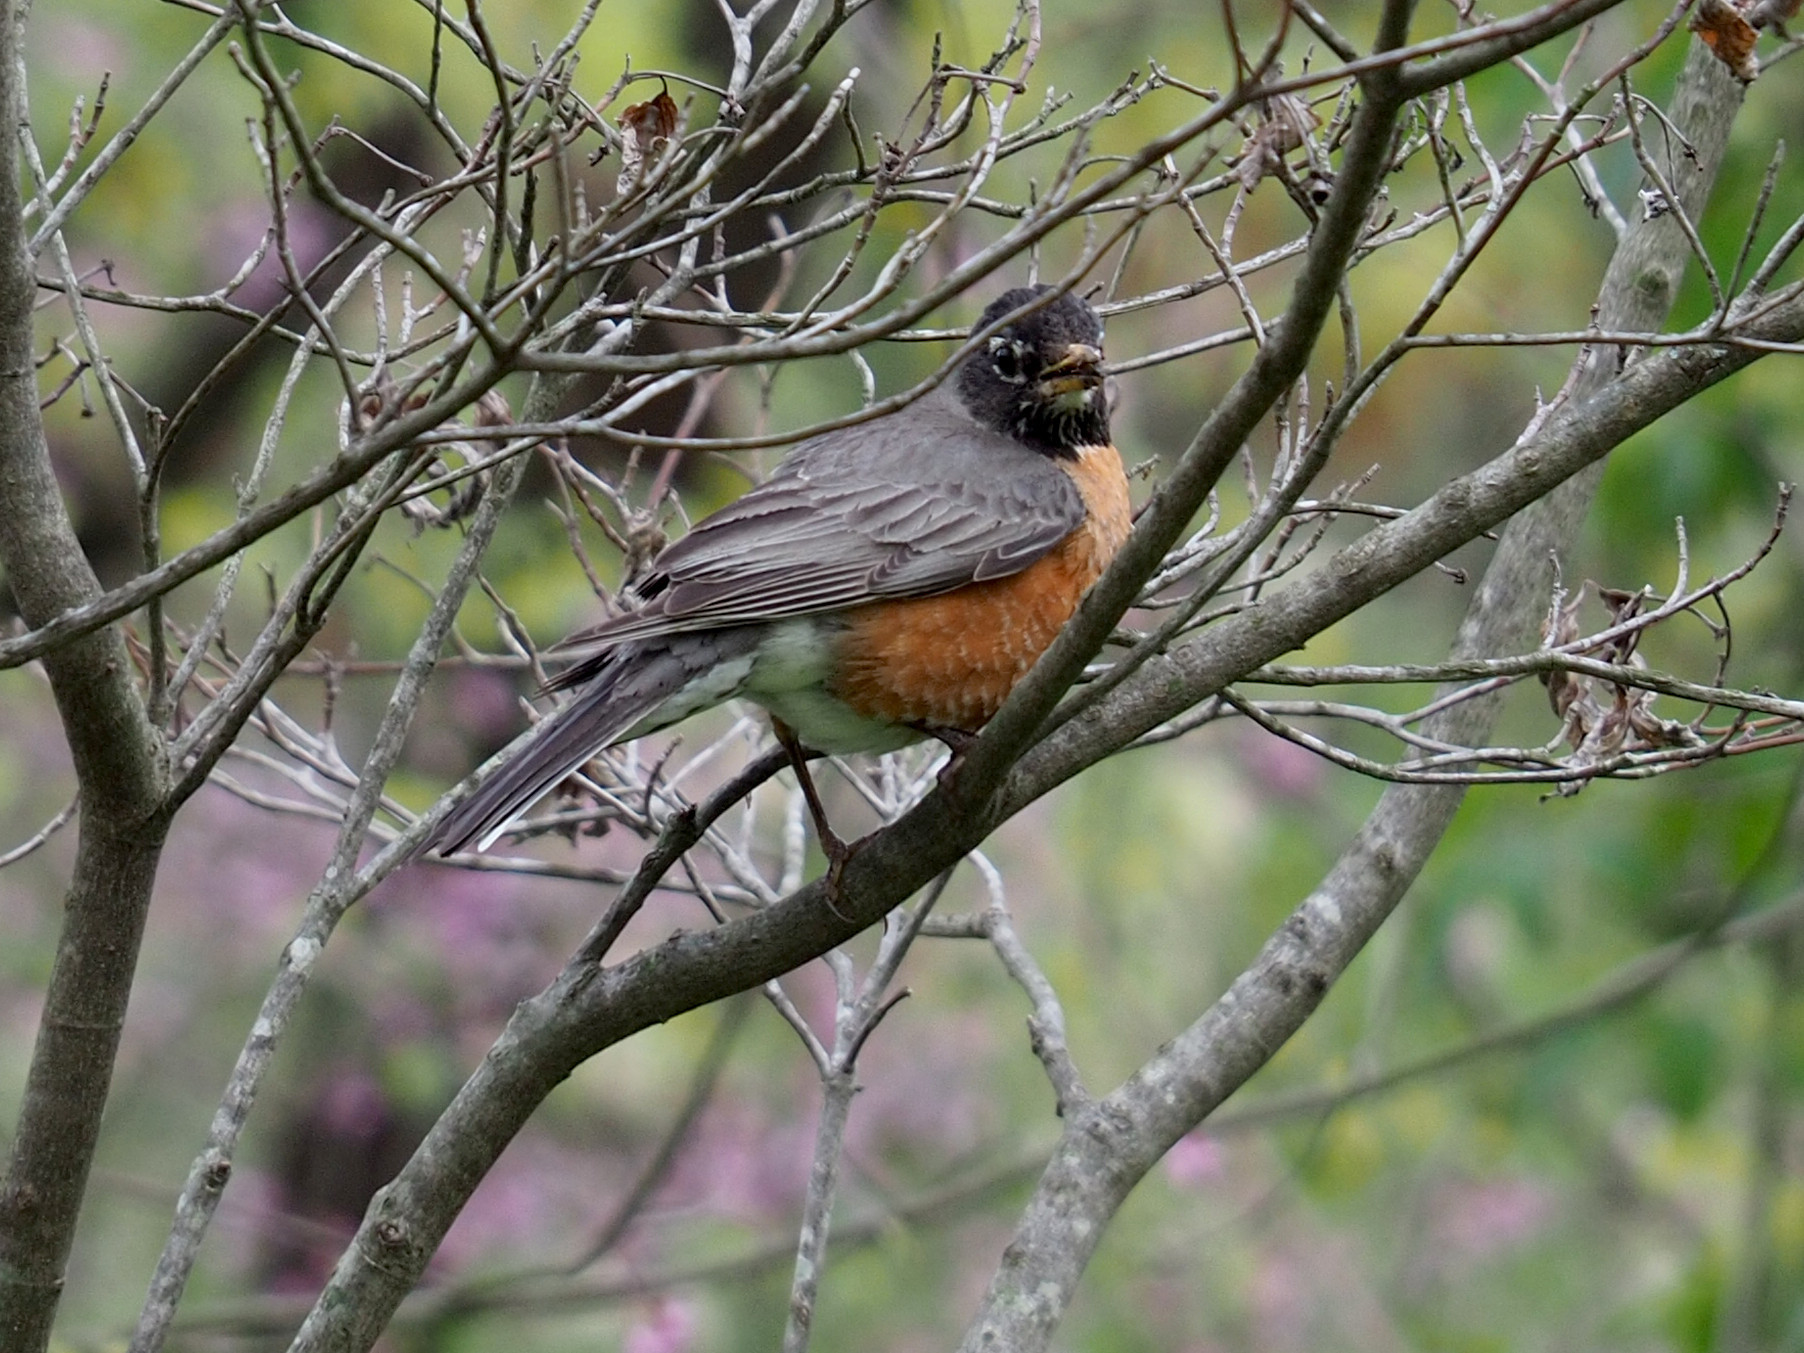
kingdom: Animalia
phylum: Chordata
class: Aves
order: Passeriformes
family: Turdidae
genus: Turdus
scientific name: Turdus migratorius
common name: American robin
